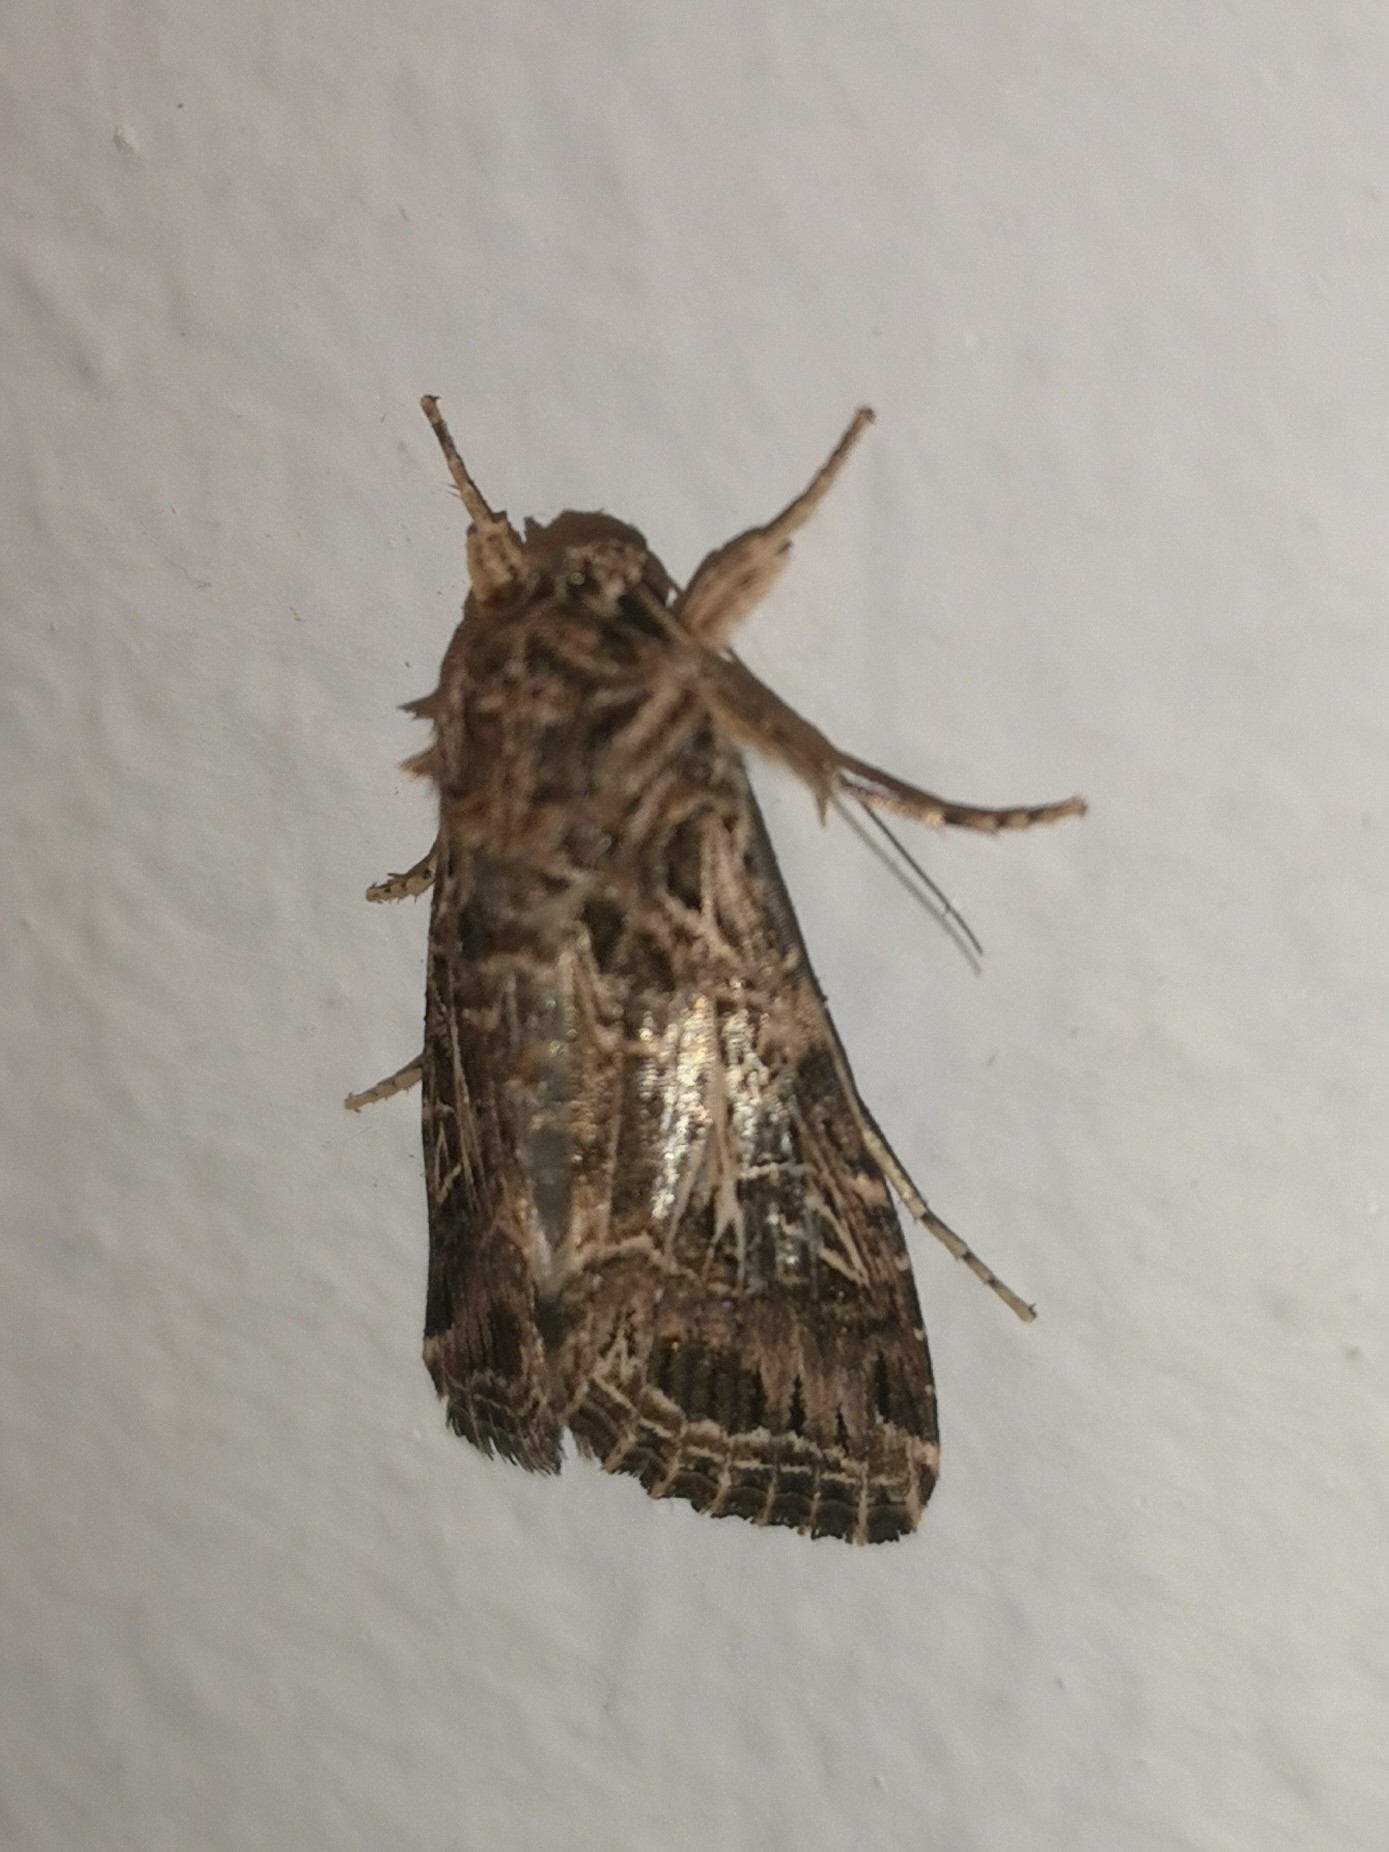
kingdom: Animalia
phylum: Arthropoda
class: Insecta
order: Lepidoptera
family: Noctuidae
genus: Spodoptera
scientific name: Spodoptera littoralis
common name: Egyptian cotton leafworm
